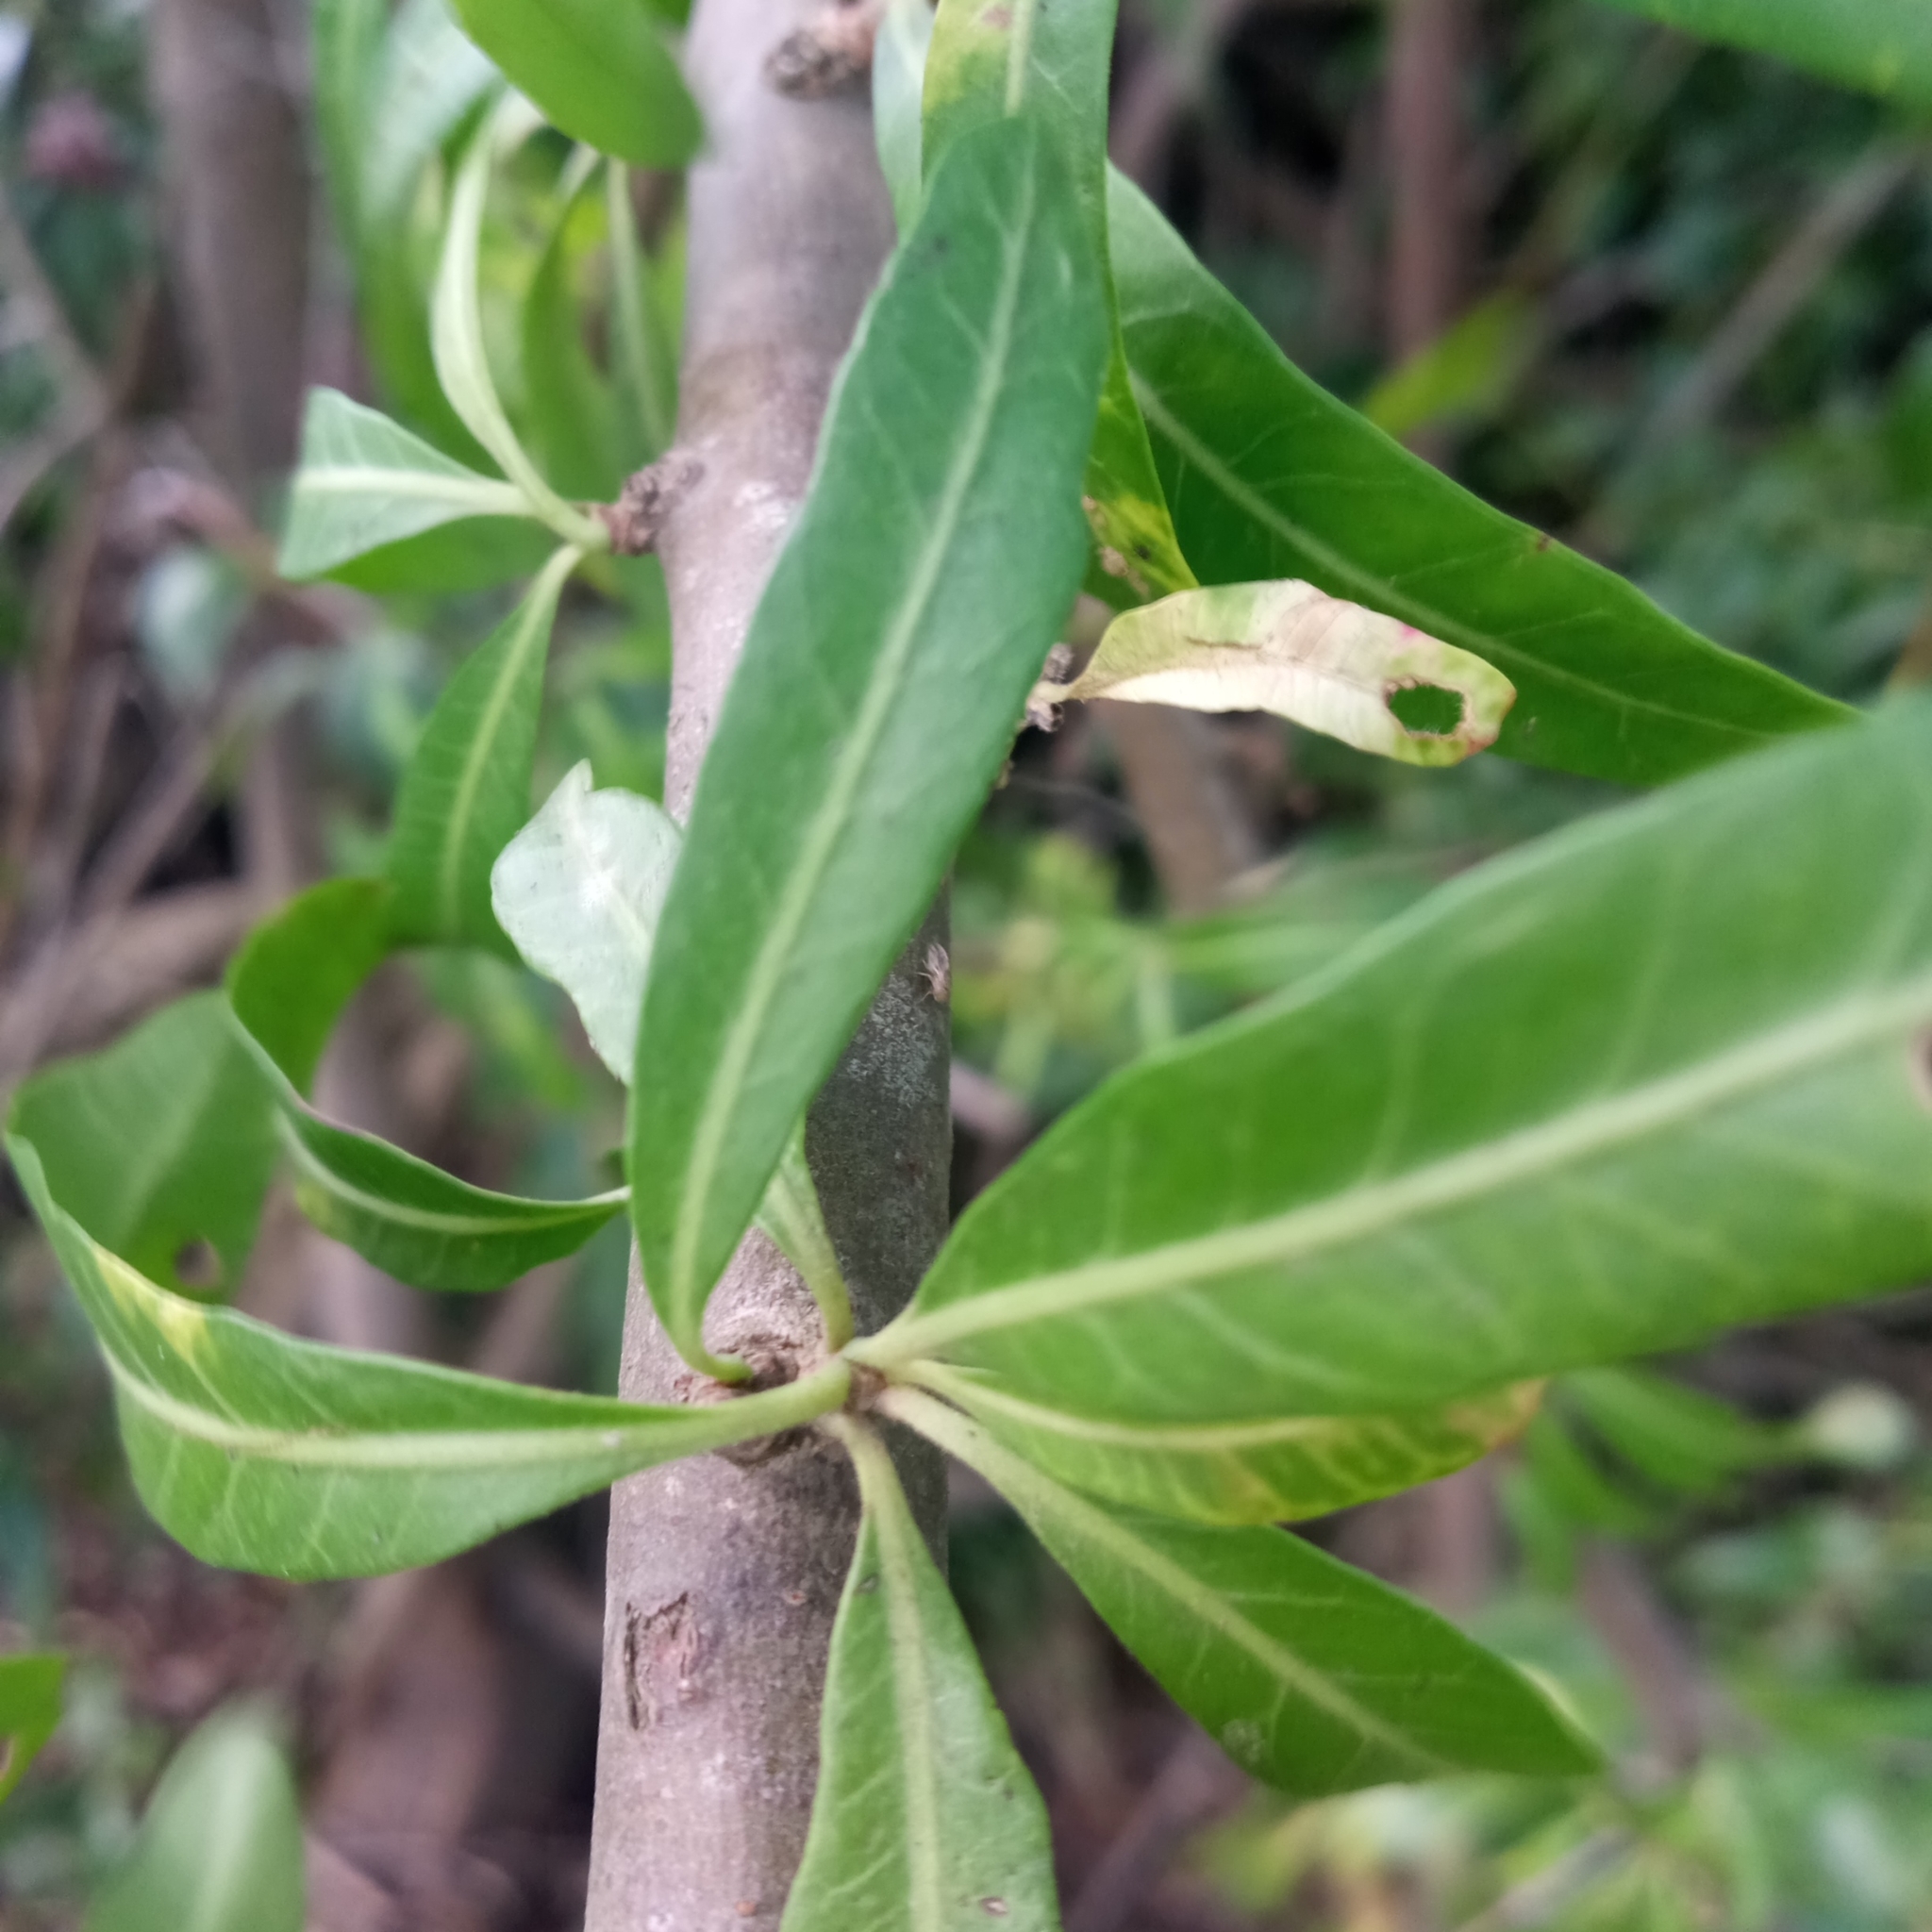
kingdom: Plantae
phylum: Tracheophyta
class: Magnoliopsida
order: Sapindales
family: Anacardiaceae
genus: Schinus
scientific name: Schinus longifolia
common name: Longleaf peppertree
